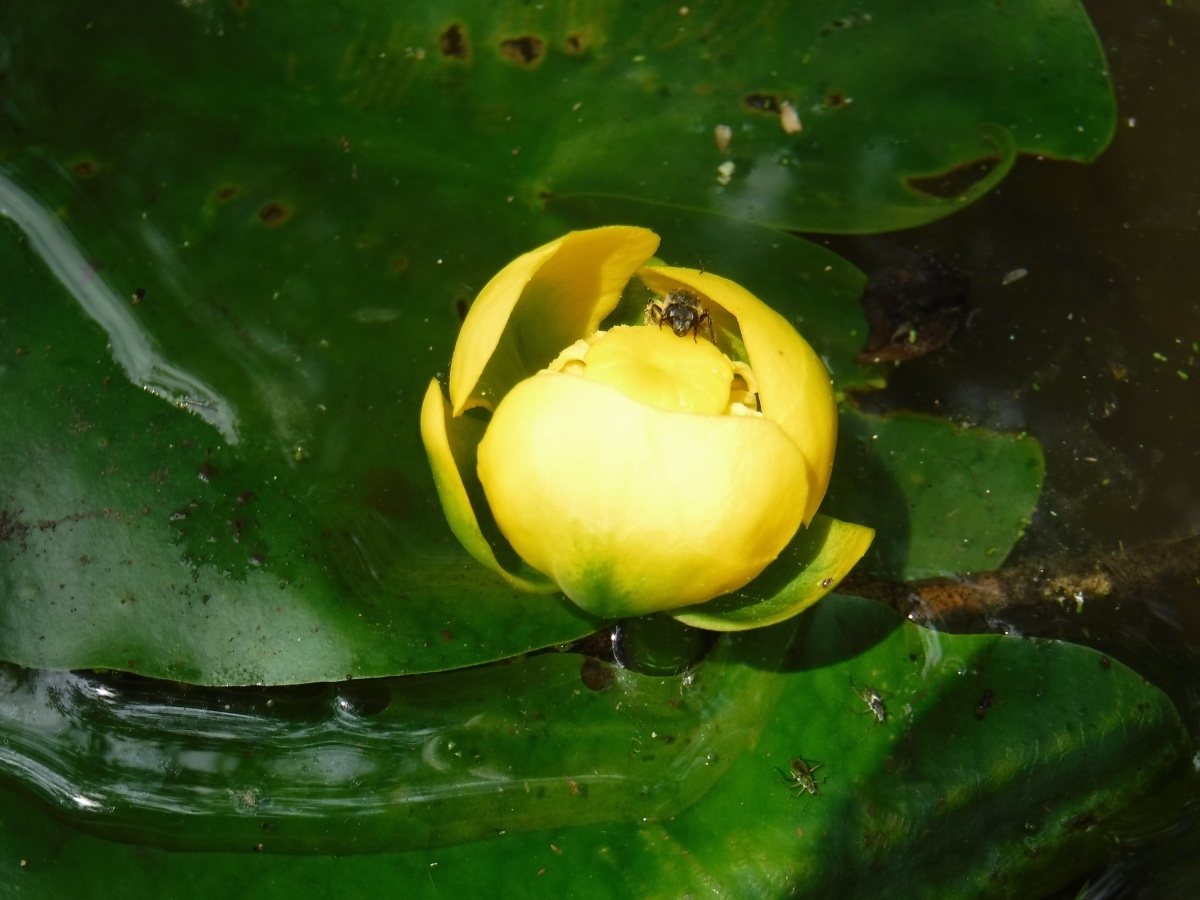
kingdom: Plantae
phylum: Tracheophyta
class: Magnoliopsida
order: Nymphaeales
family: Nymphaeaceae
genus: Nuphar
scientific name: Nuphar advena
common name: Spatter-dock
